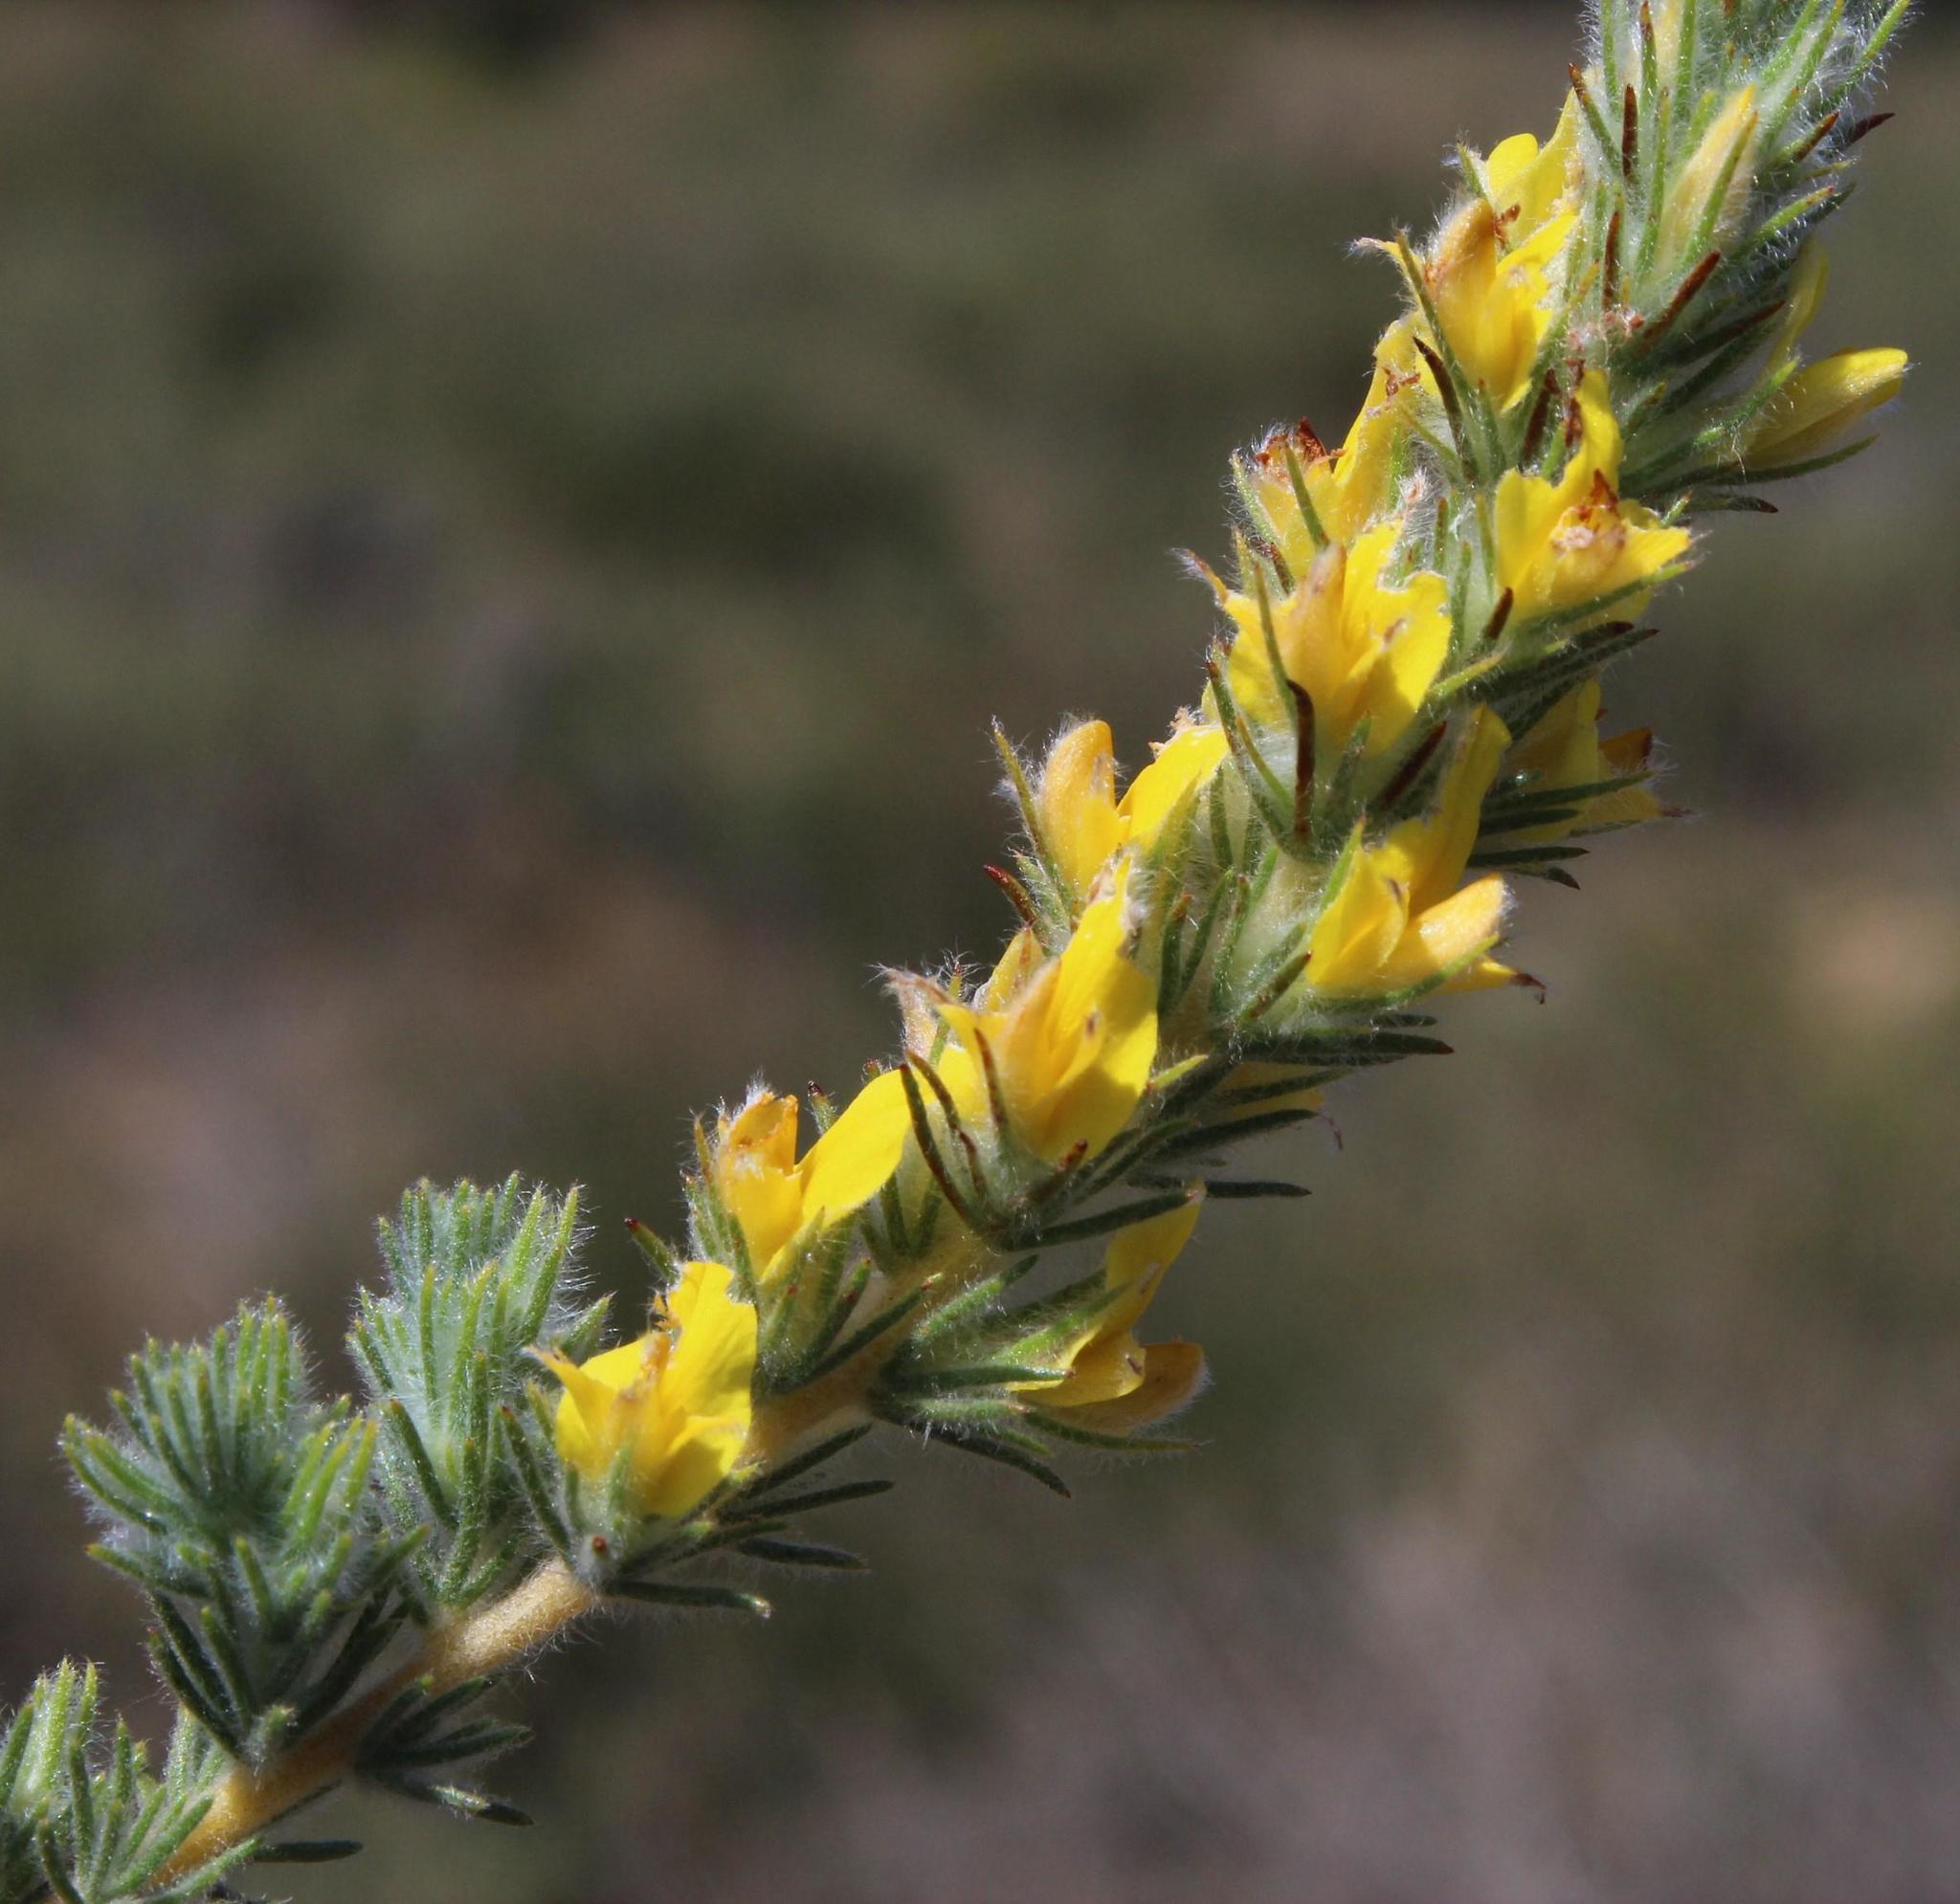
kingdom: Plantae
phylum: Tracheophyta
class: Magnoliopsida
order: Fabales
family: Fabaceae
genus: Aspalathus
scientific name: Aspalathus puberula
